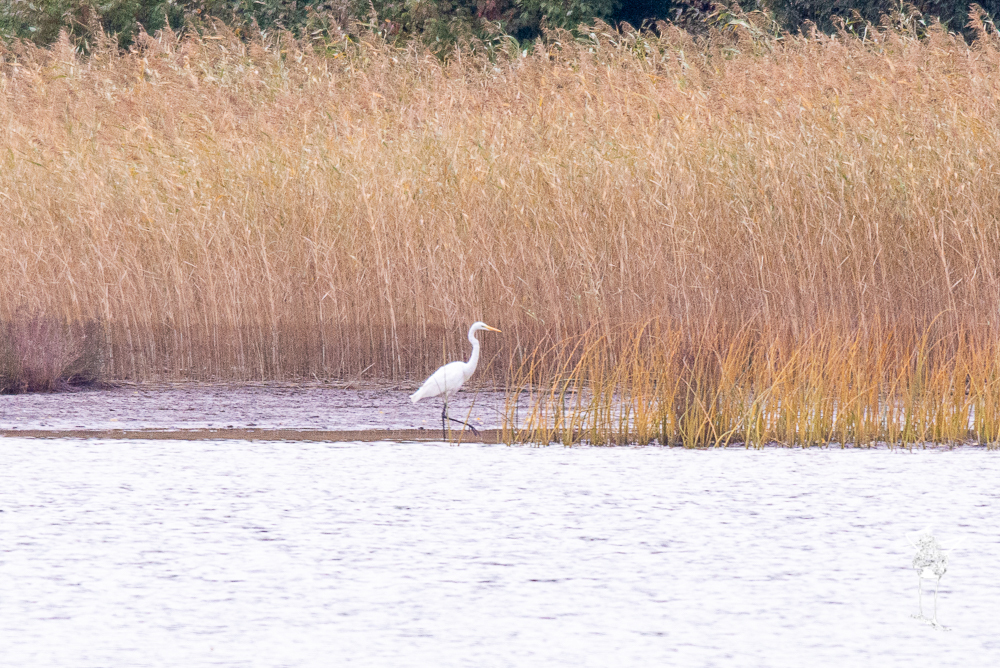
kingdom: Animalia
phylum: Chordata
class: Aves
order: Pelecaniformes
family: Ardeidae
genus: Ardea
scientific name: Ardea alba
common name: Great egret
